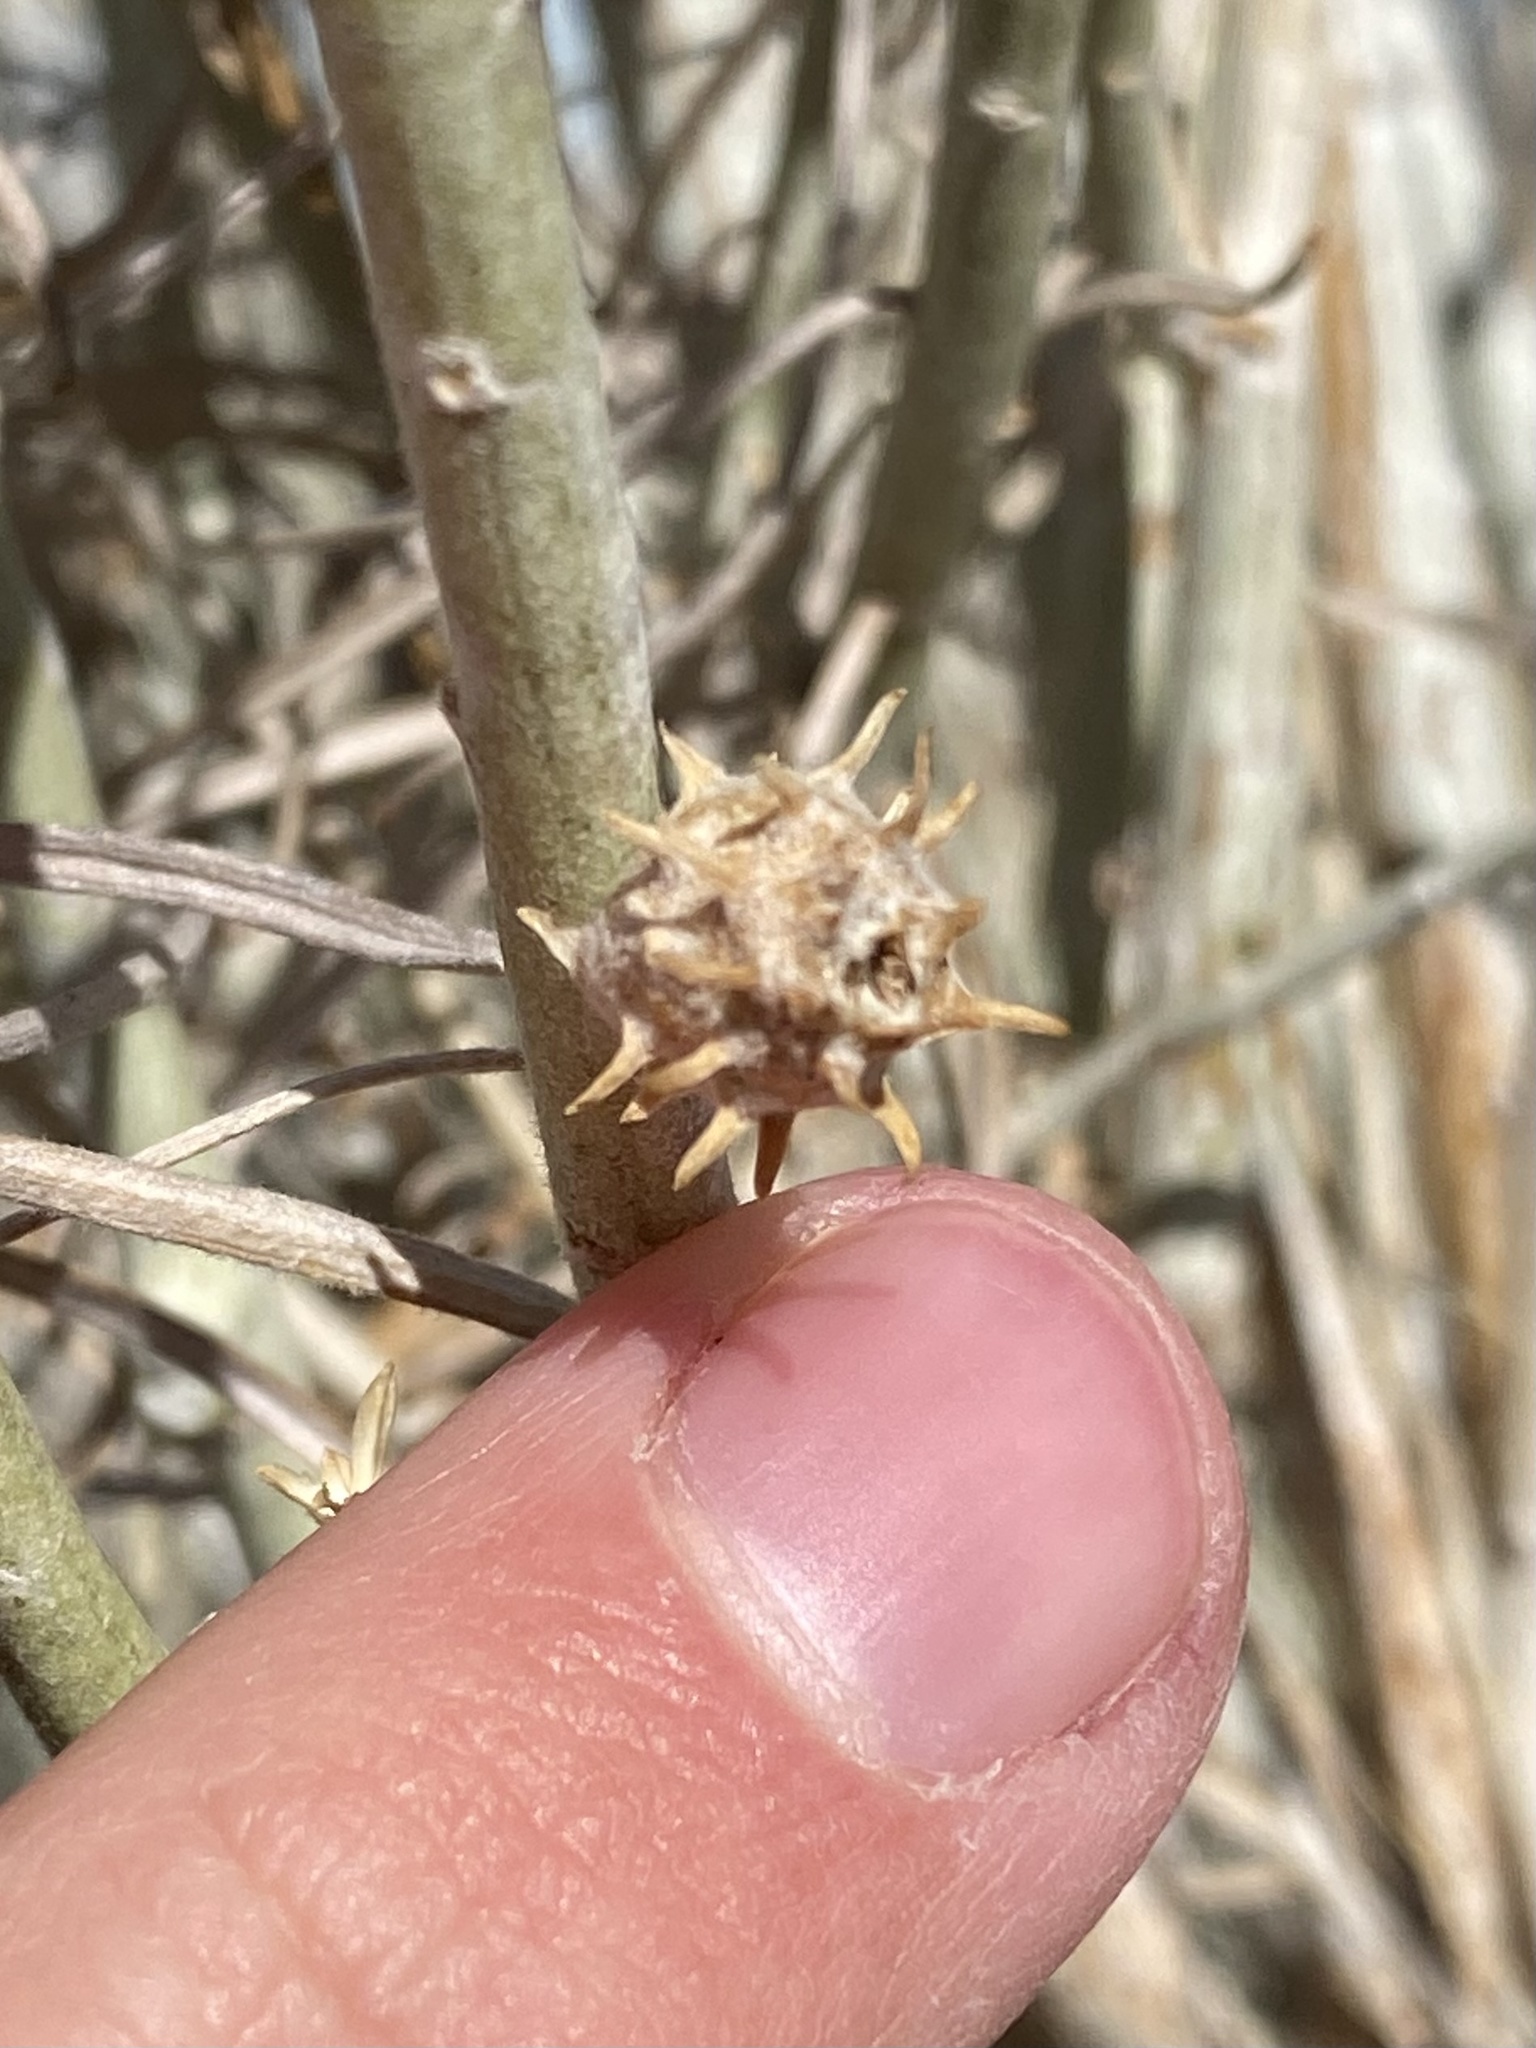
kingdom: Animalia
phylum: Arthropoda
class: Insecta
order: Diptera
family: Cecidomyiidae
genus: Rhopalomyia
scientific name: Rhopalomyia utahensis
